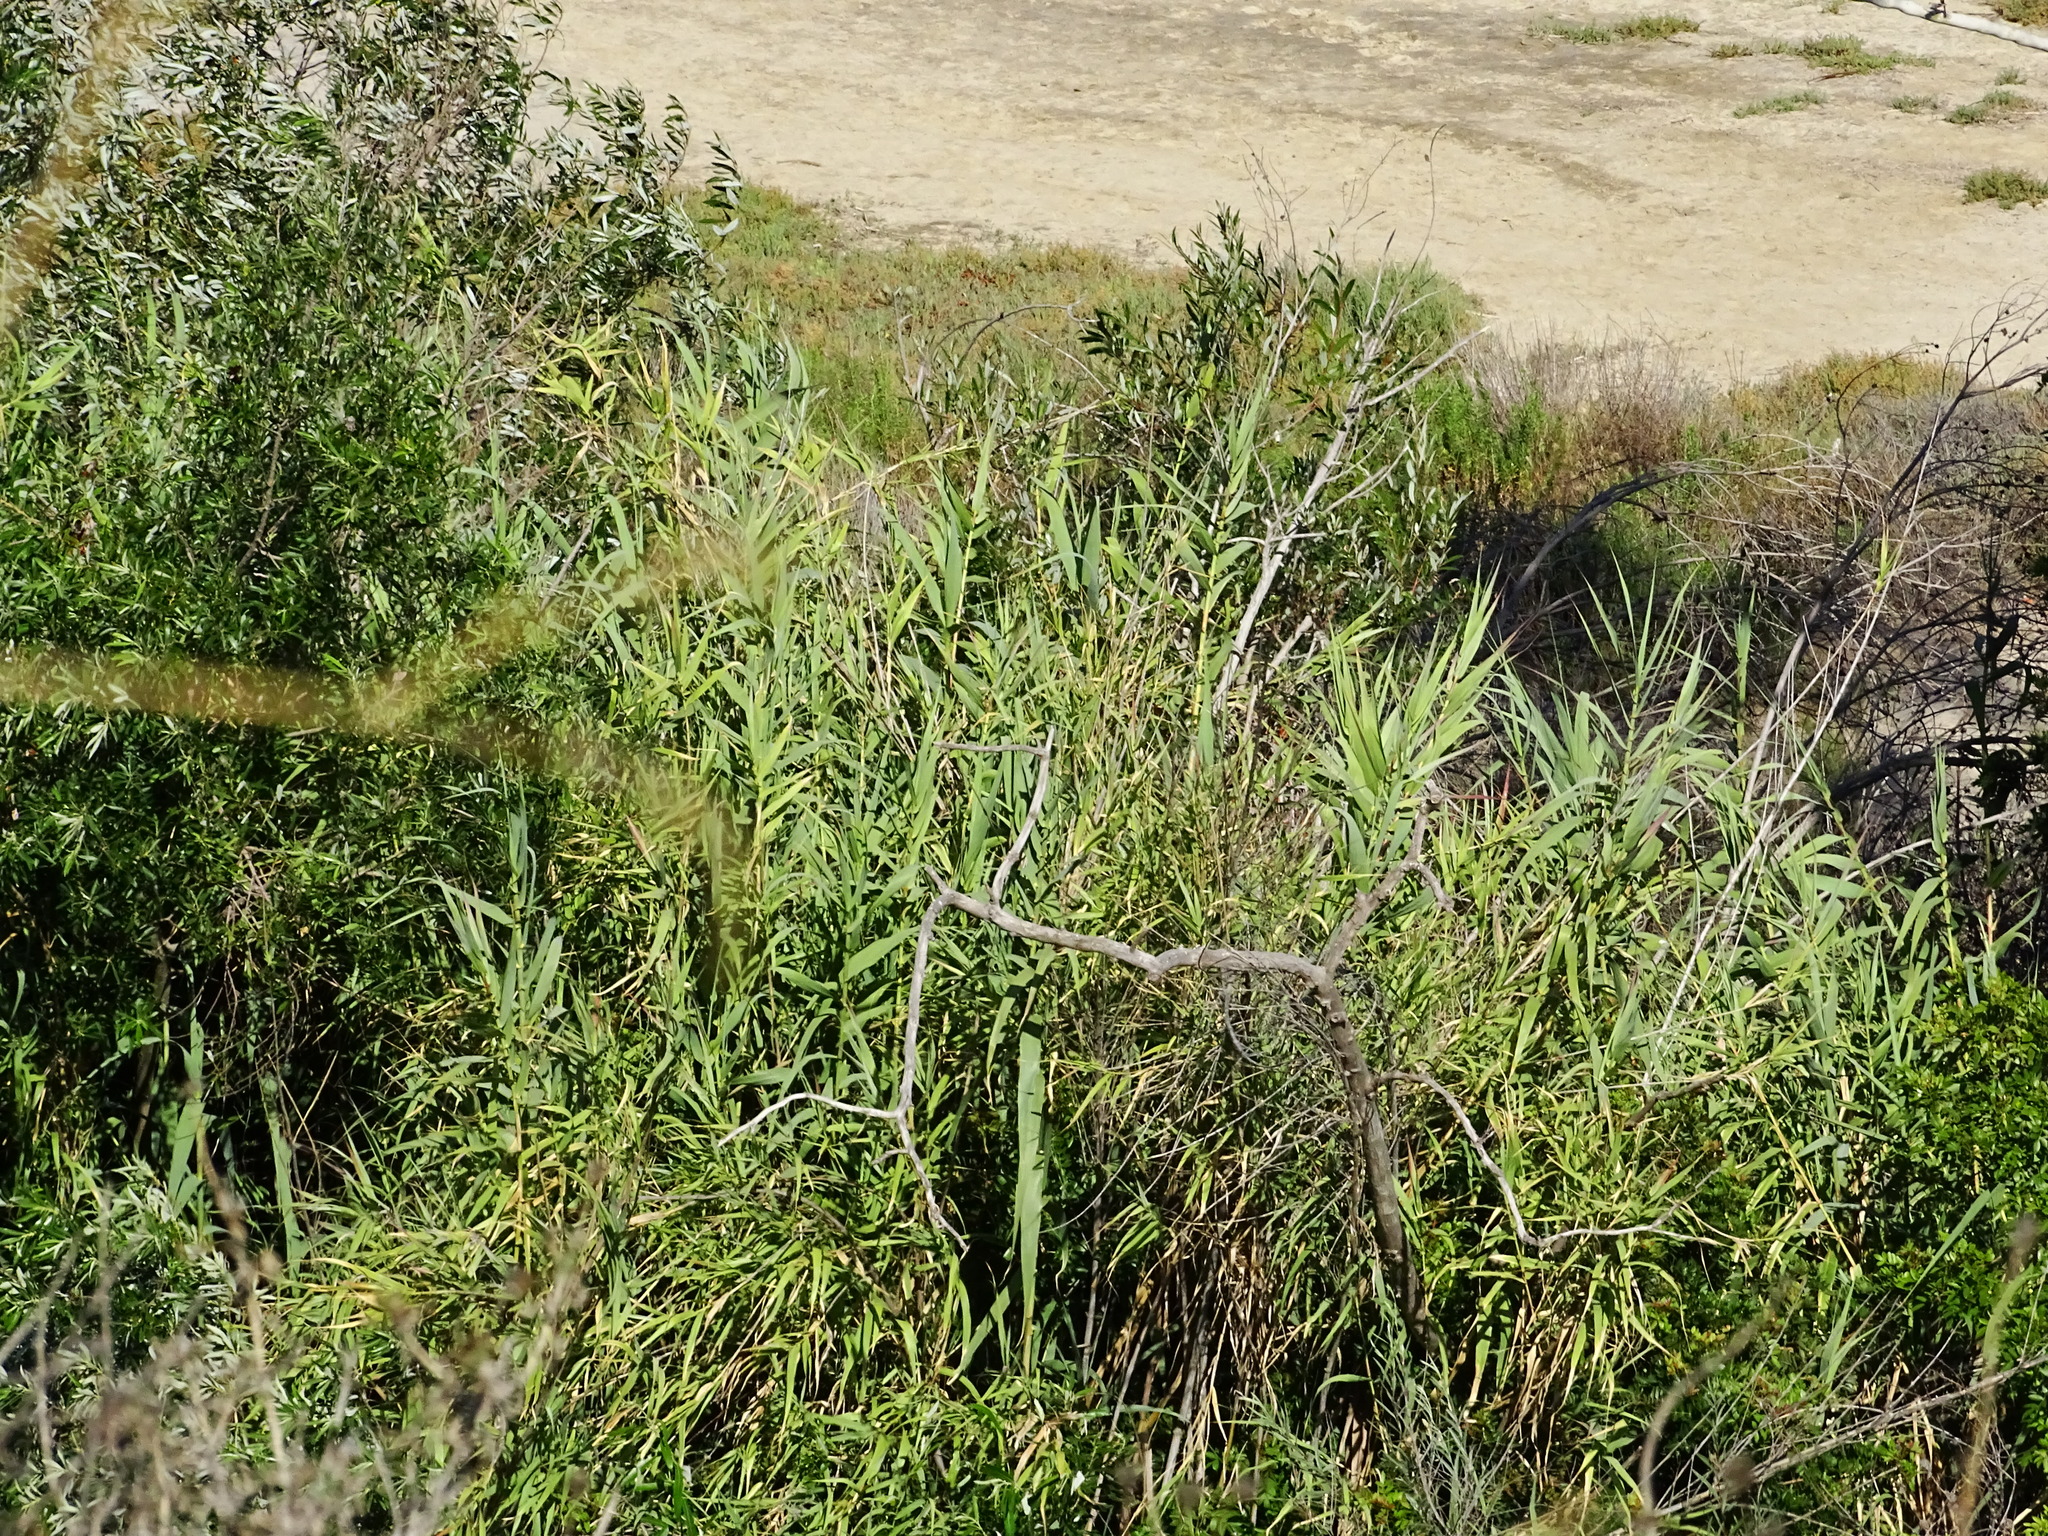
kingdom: Plantae
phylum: Tracheophyta
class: Liliopsida
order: Poales
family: Poaceae
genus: Arundo
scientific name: Arundo donax
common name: Giant reed
